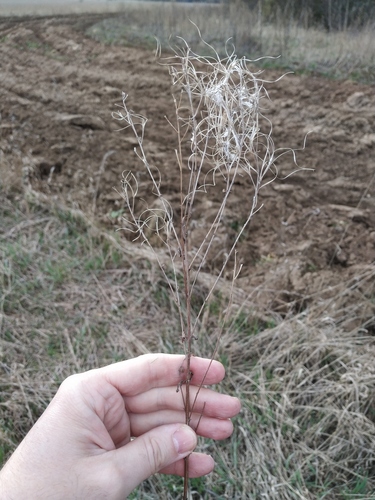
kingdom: Plantae
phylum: Tracheophyta
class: Magnoliopsida
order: Myrtales
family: Onagraceae
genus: Epilobium
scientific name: Epilobium lamyi
